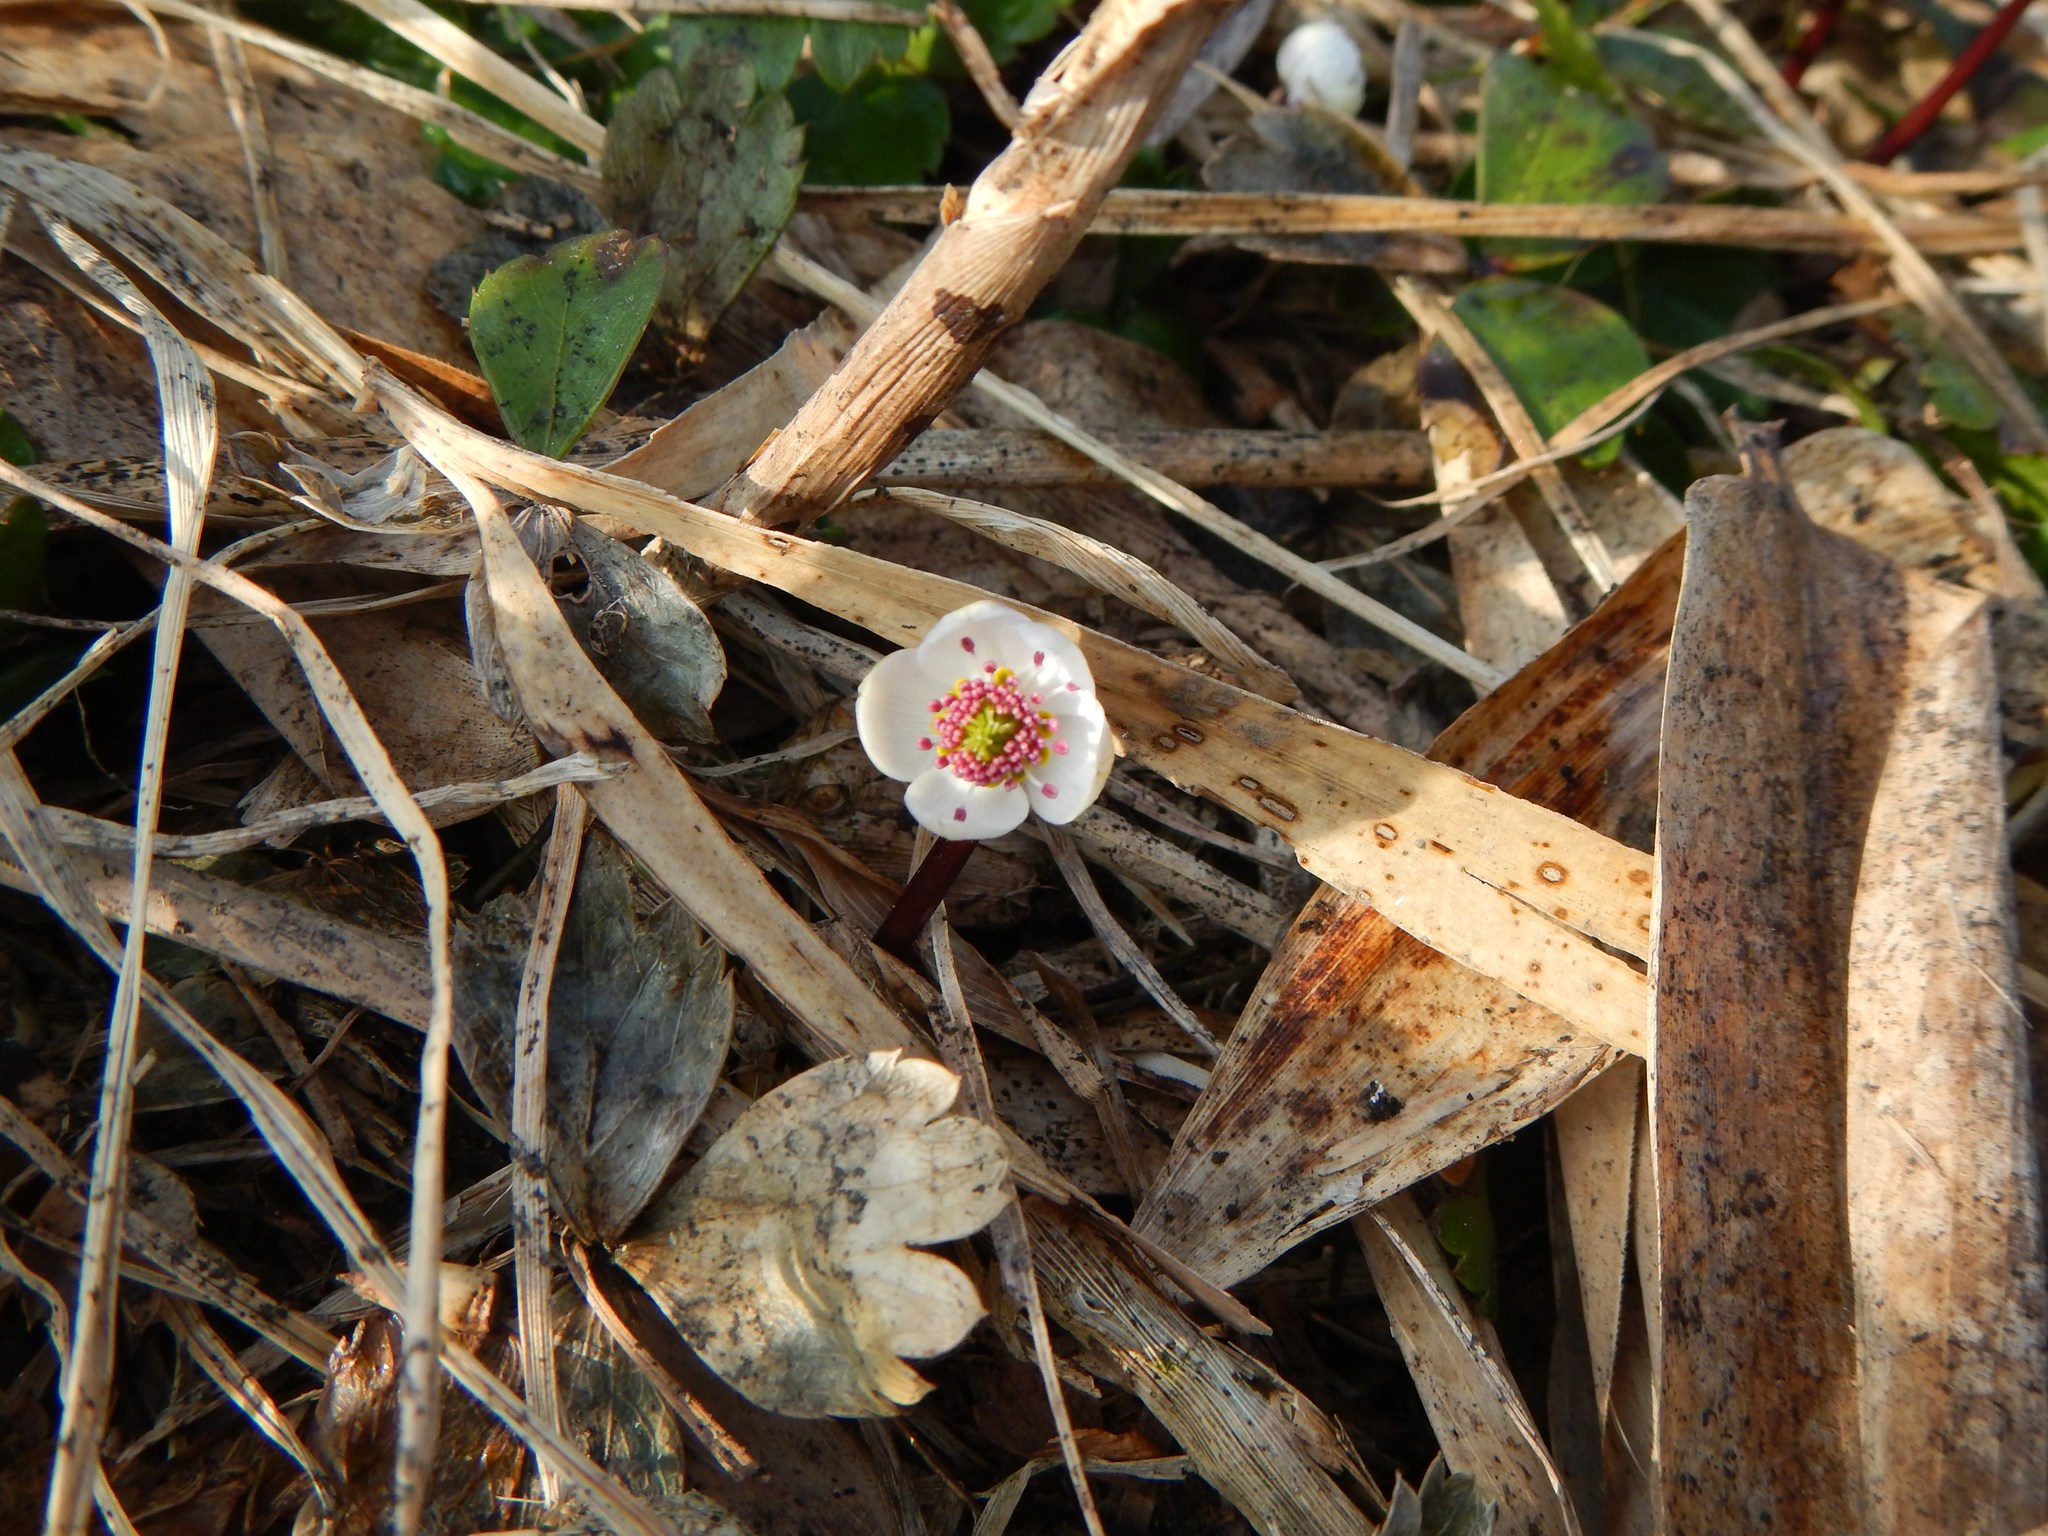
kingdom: Plantae
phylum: Tracheophyta
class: Magnoliopsida
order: Ranunculales
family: Ranunculaceae
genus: Coptis
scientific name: Coptis trifoliolata
